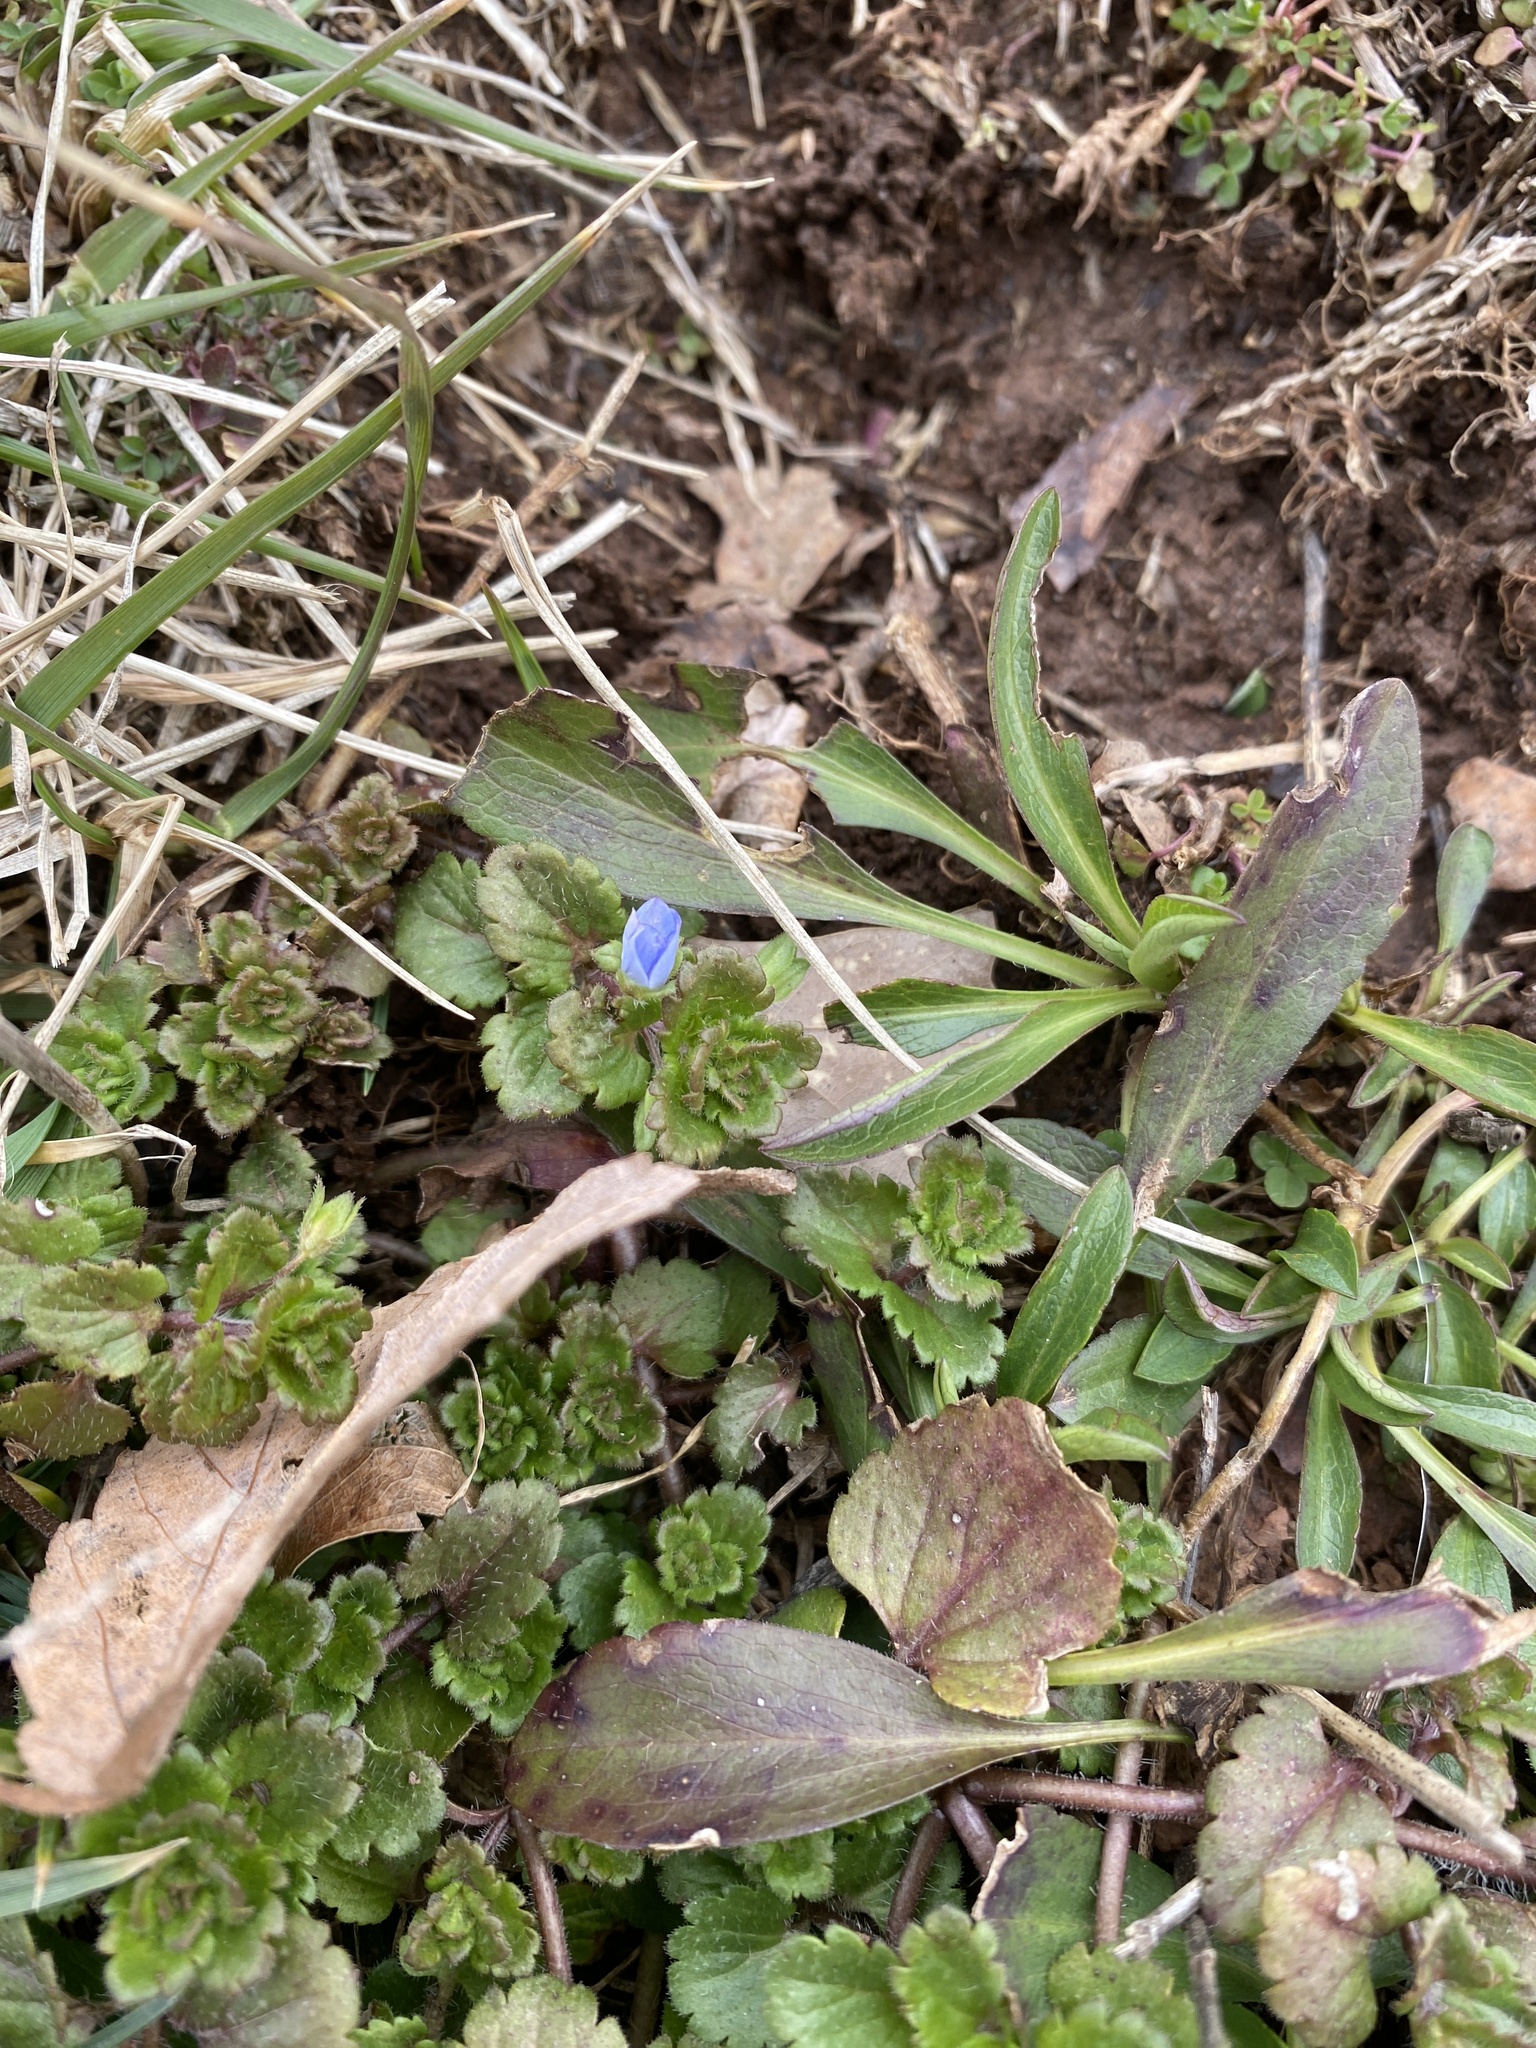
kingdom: Plantae
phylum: Tracheophyta
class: Magnoliopsida
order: Lamiales
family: Plantaginaceae
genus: Veronica
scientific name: Veronica persica
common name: Common field-speedwell
